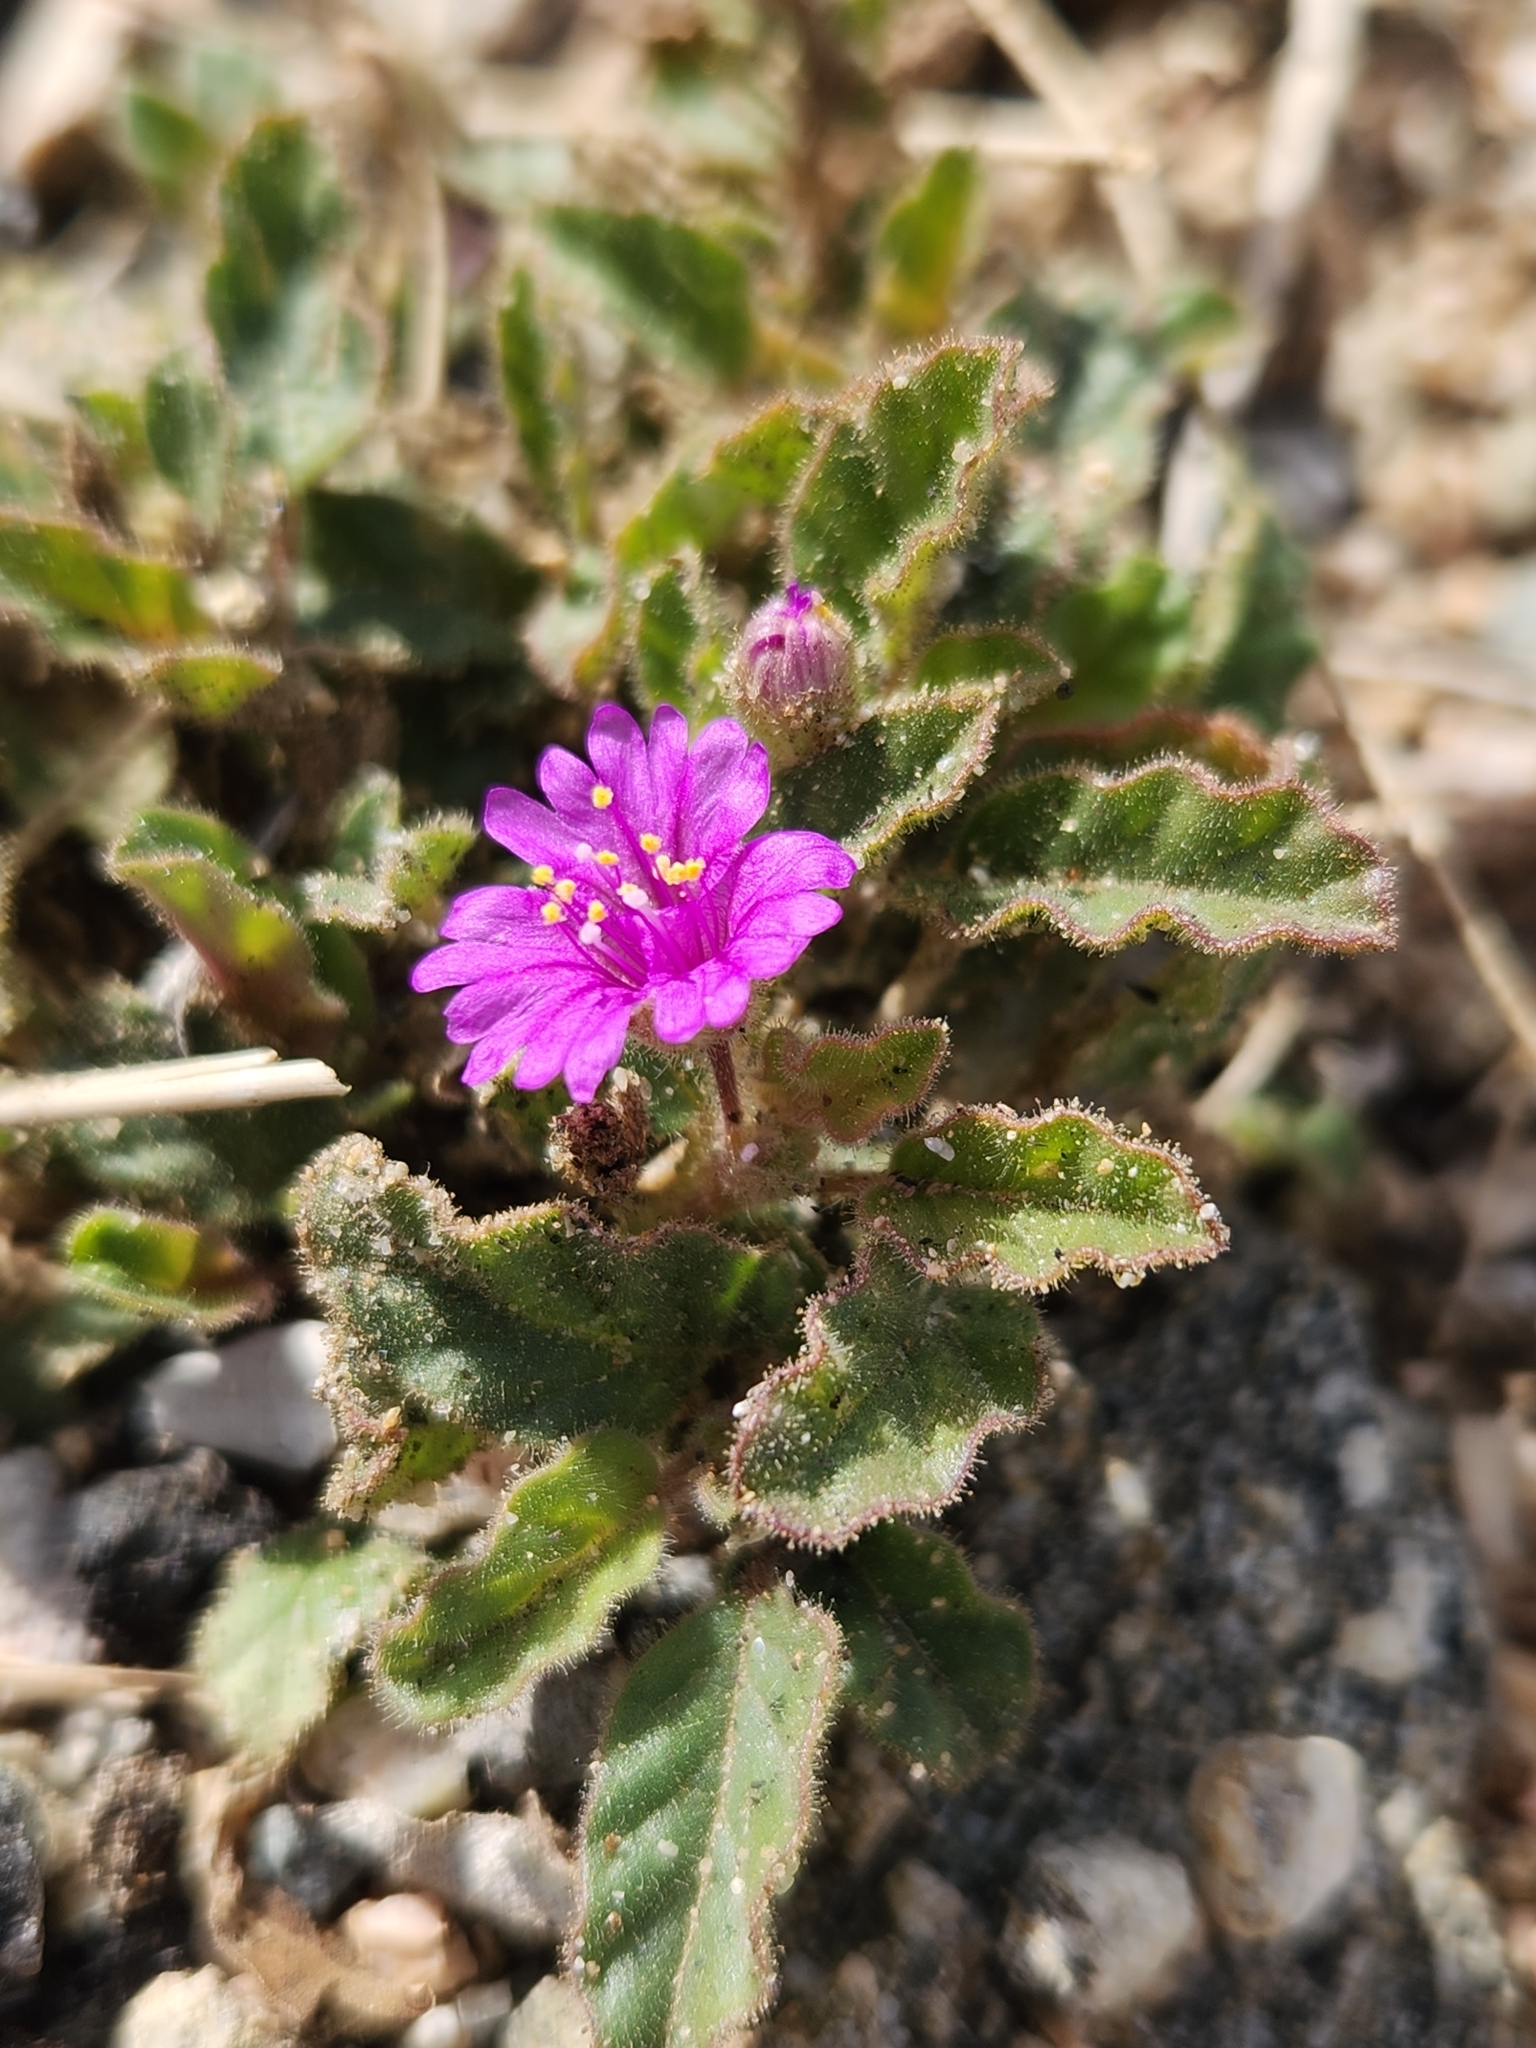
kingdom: Plantae
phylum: Tracheophyta
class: Magnoliopsida
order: Caryophyllales
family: Nyctaginaceae
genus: Allionia
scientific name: Allionia incarnata
